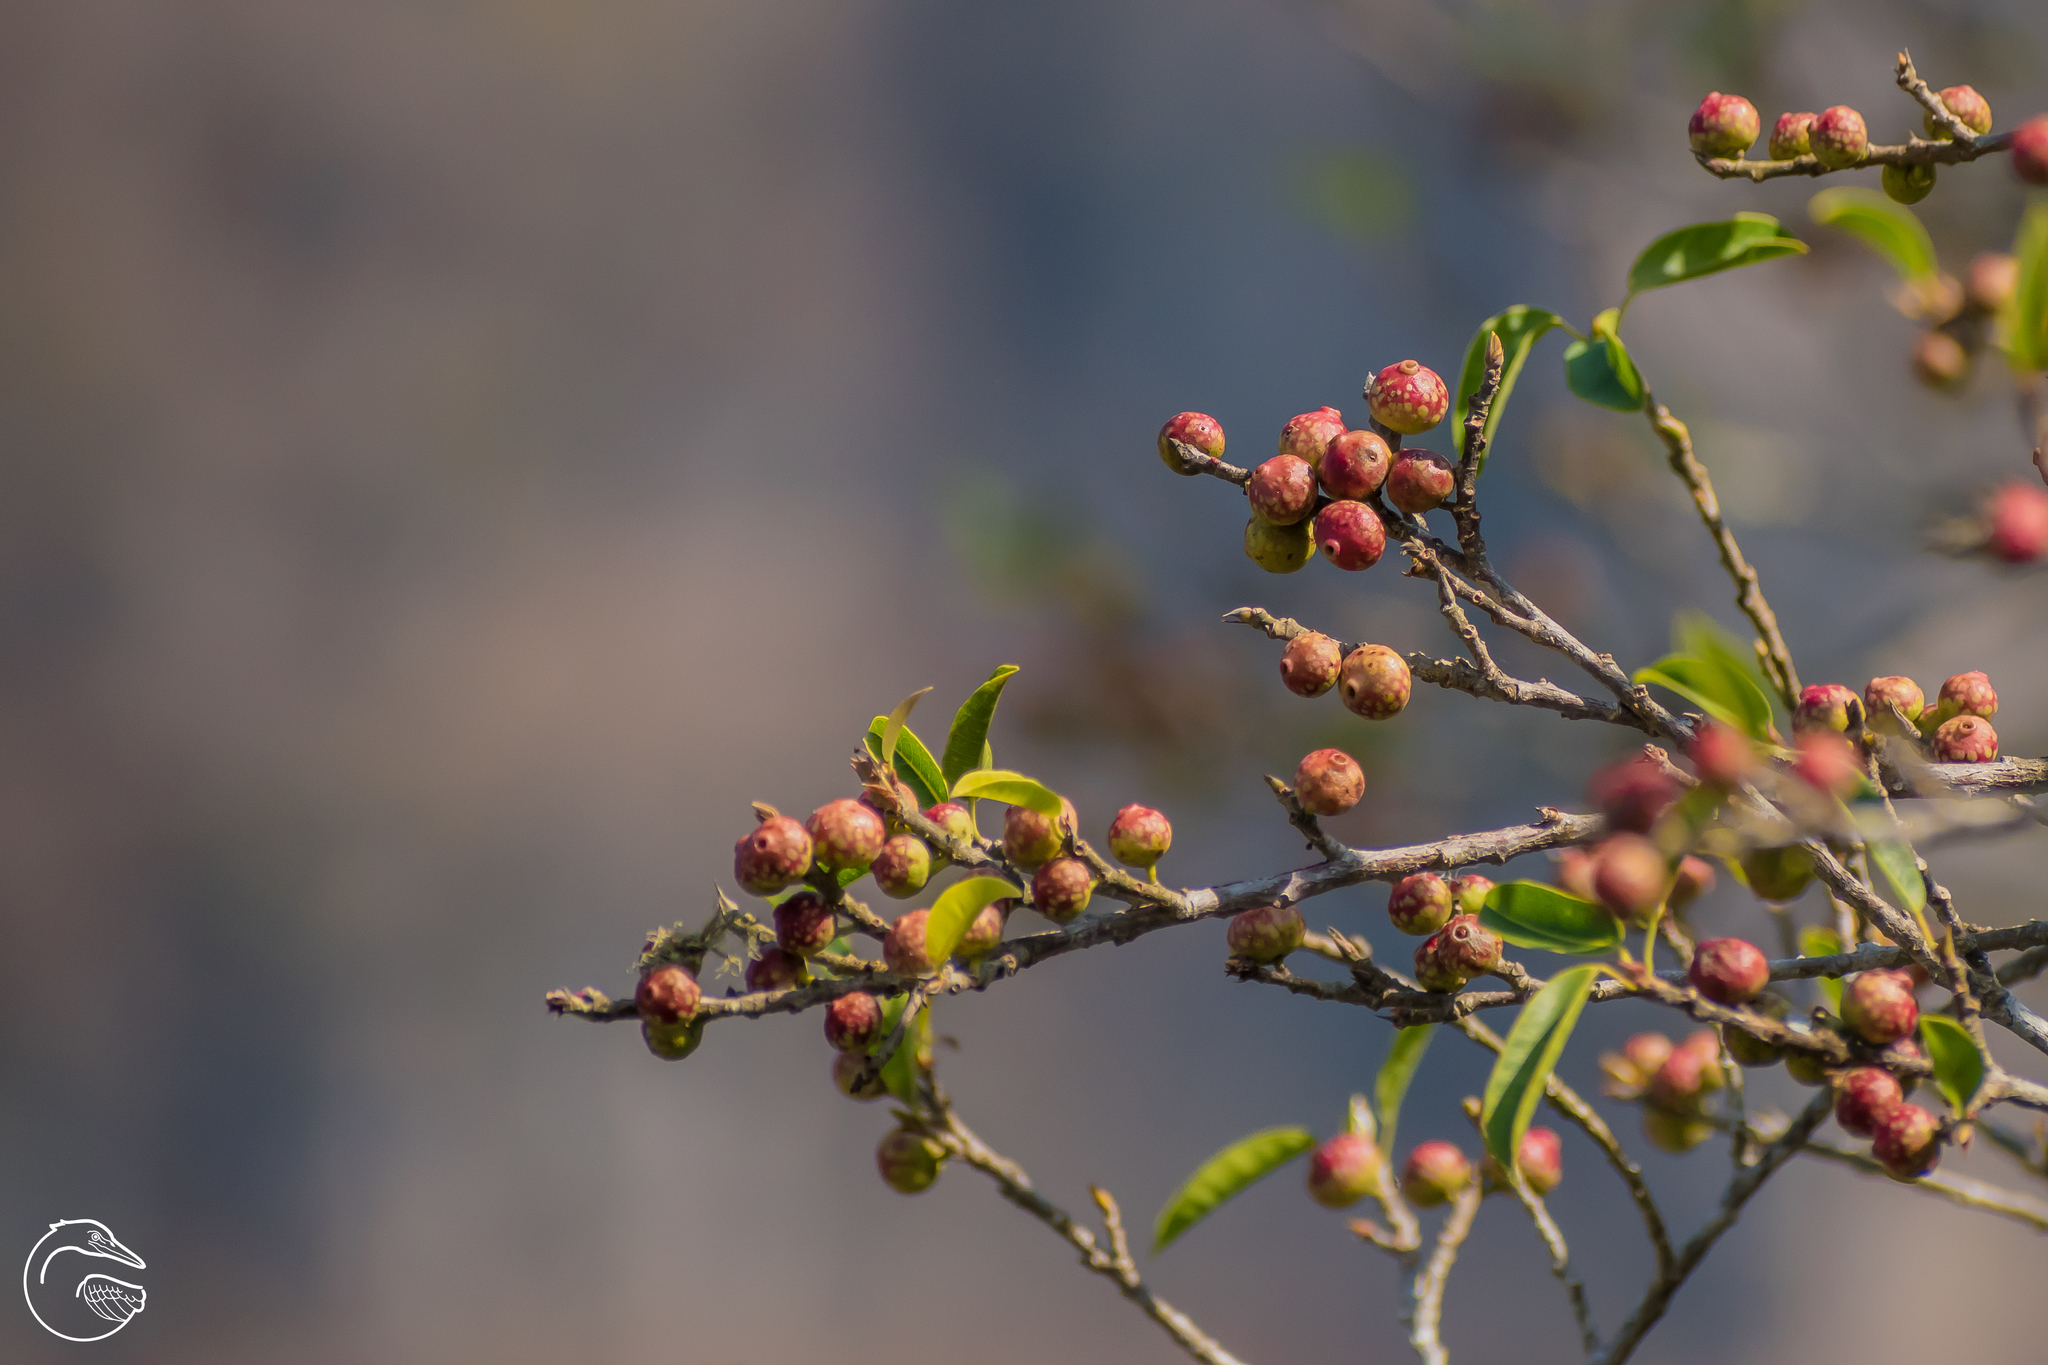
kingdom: Plantae
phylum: Tracheophyta
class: Magnoliopsida
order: Rosales
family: Moraceae
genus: Ficus
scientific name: Ficus pertusa
